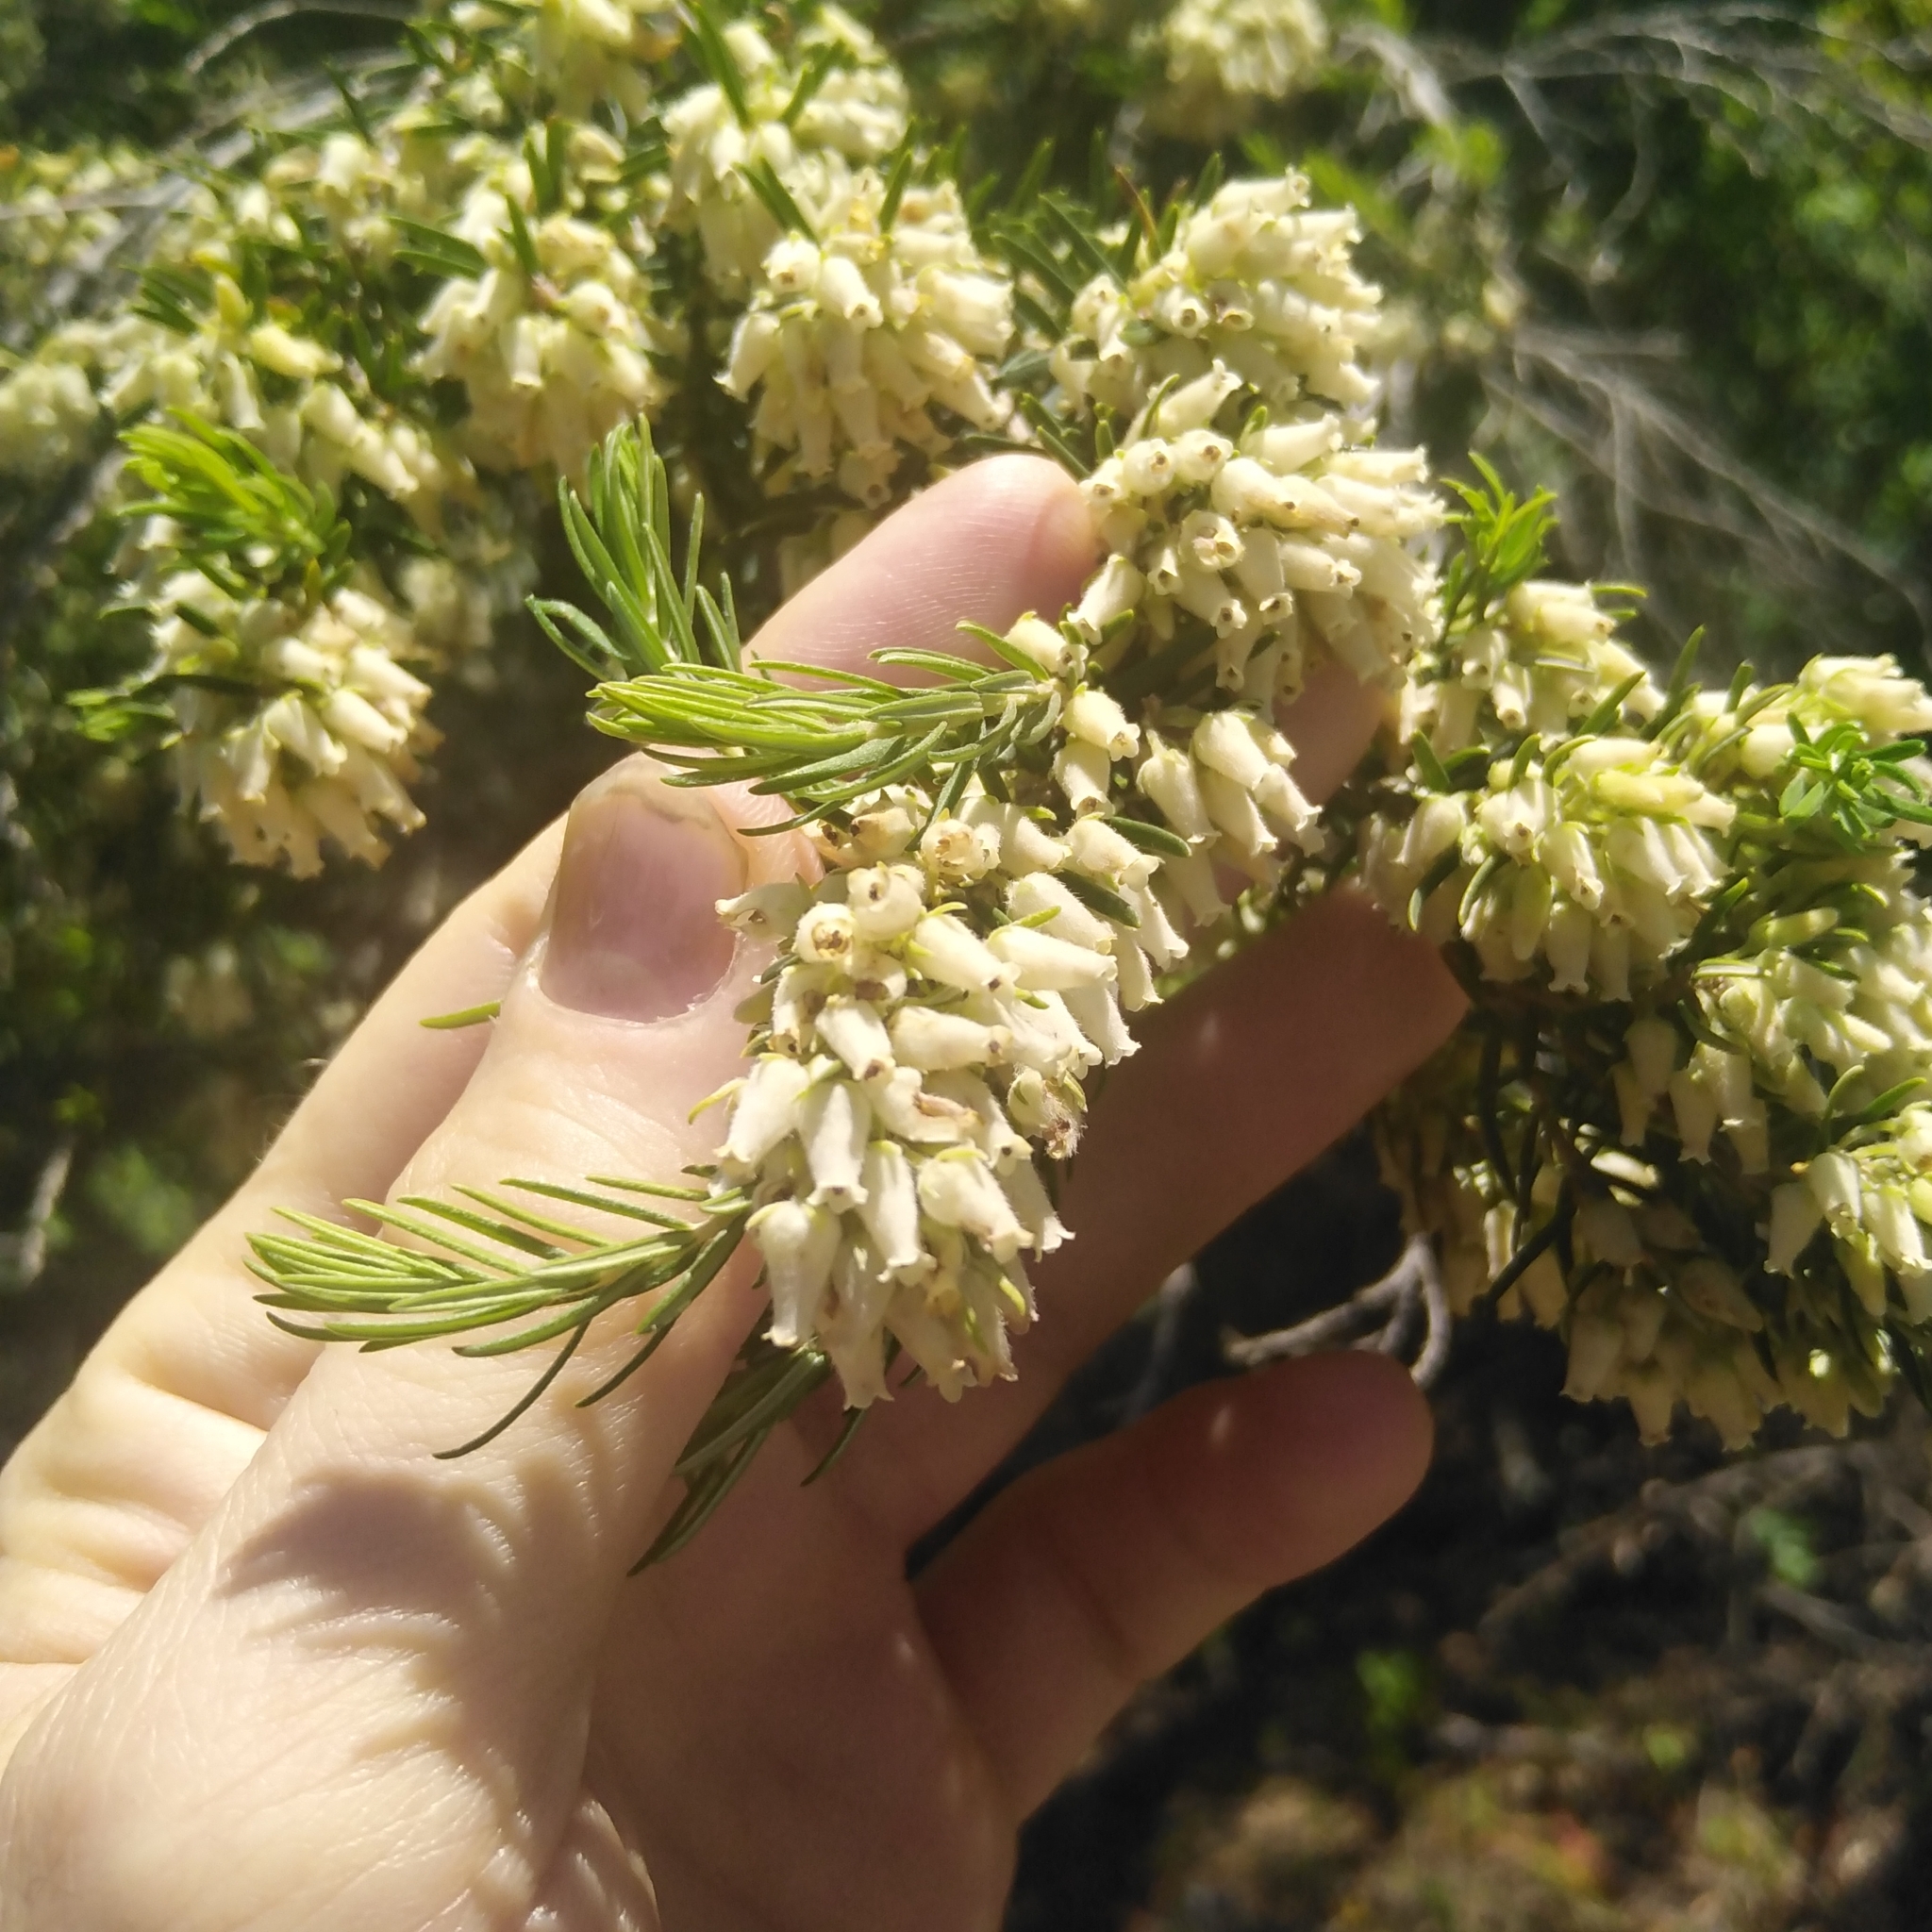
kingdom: Plantae
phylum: Tracheophyta
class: Magnoliopsida
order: Ericales
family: Ericaceae
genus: Erica
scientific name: Erica caffra
